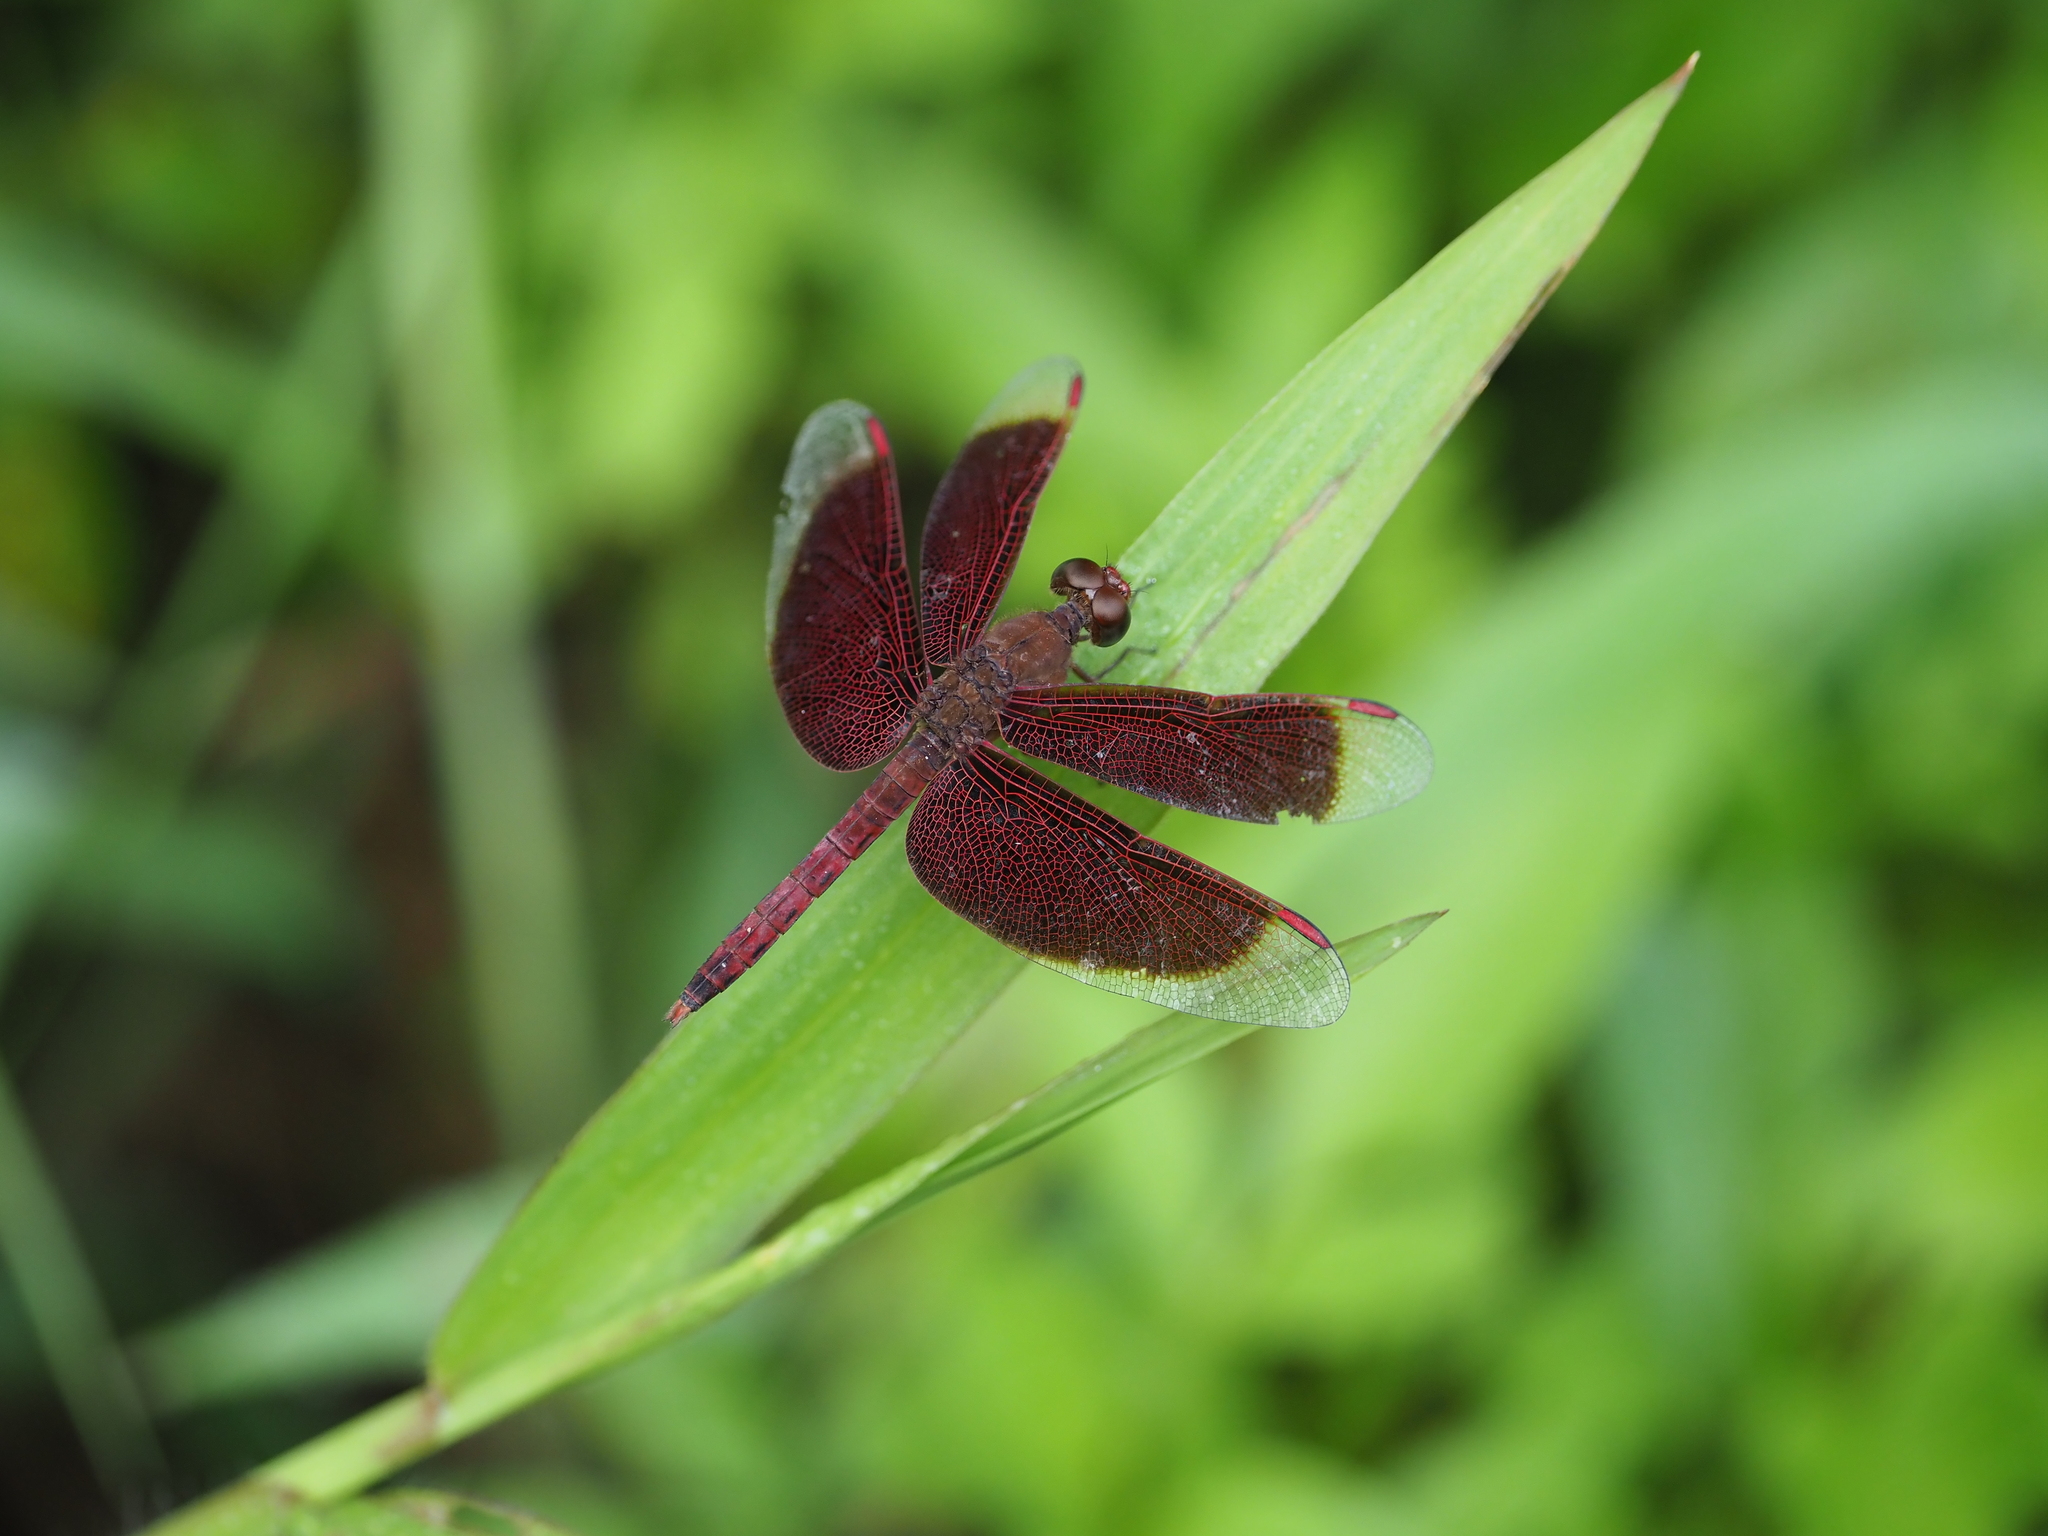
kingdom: Animalia
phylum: Arthropoda
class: Insecta
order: Odonata
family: Libellulidae
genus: Neurothemis
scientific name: Neurothemis fluctuans
